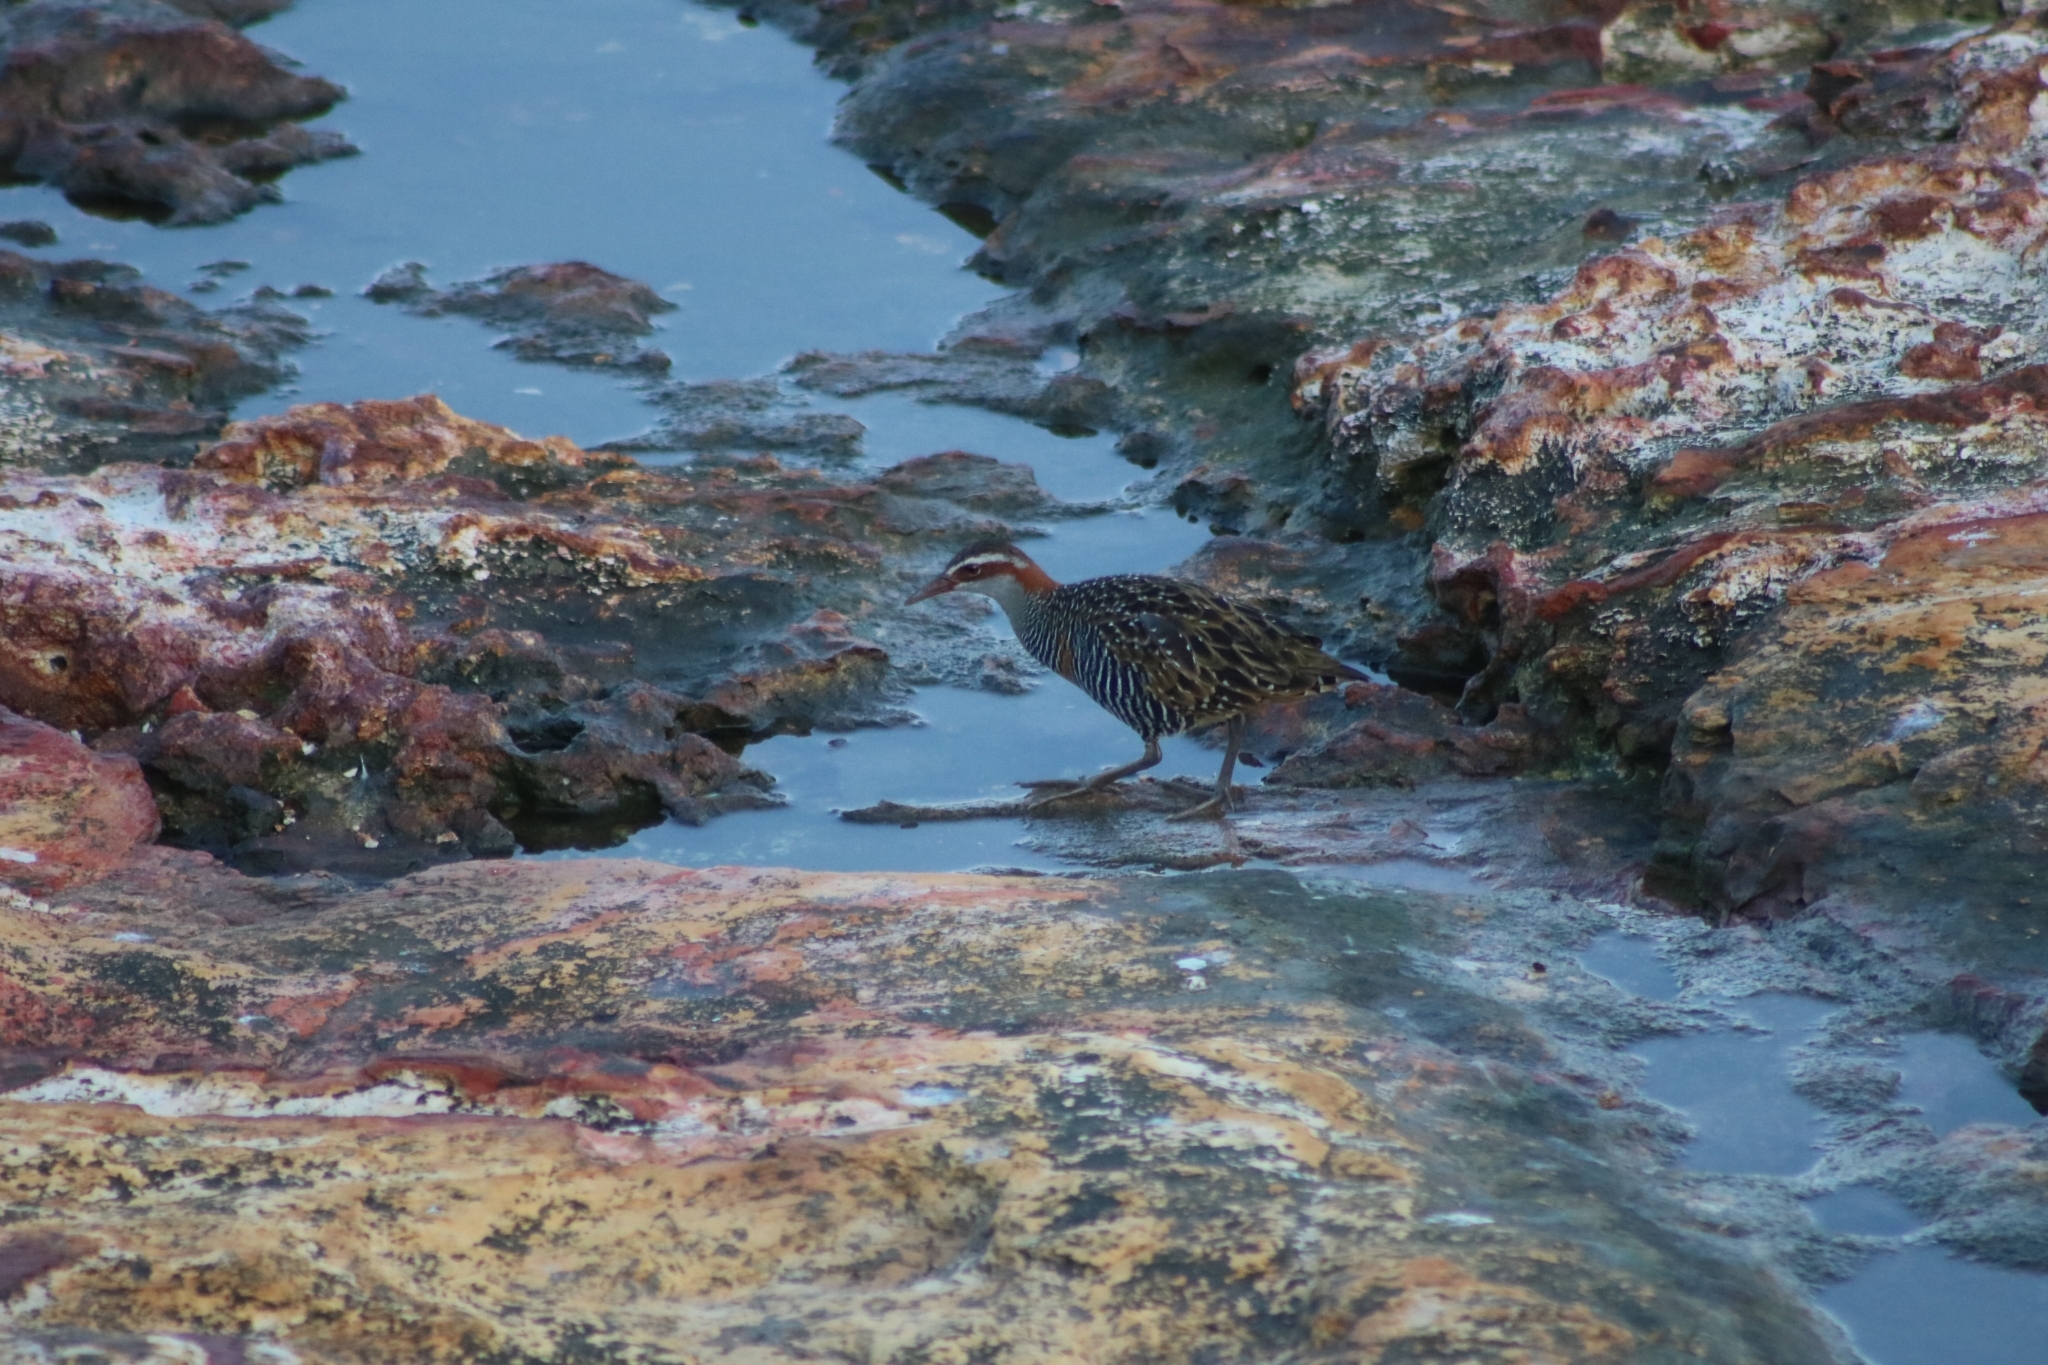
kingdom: Animalia
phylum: Chordata
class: Aves
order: Gruiformes
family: Rallidae
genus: Gallirallus
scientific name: Gallirallus philippensis
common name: Buff-banded rail
